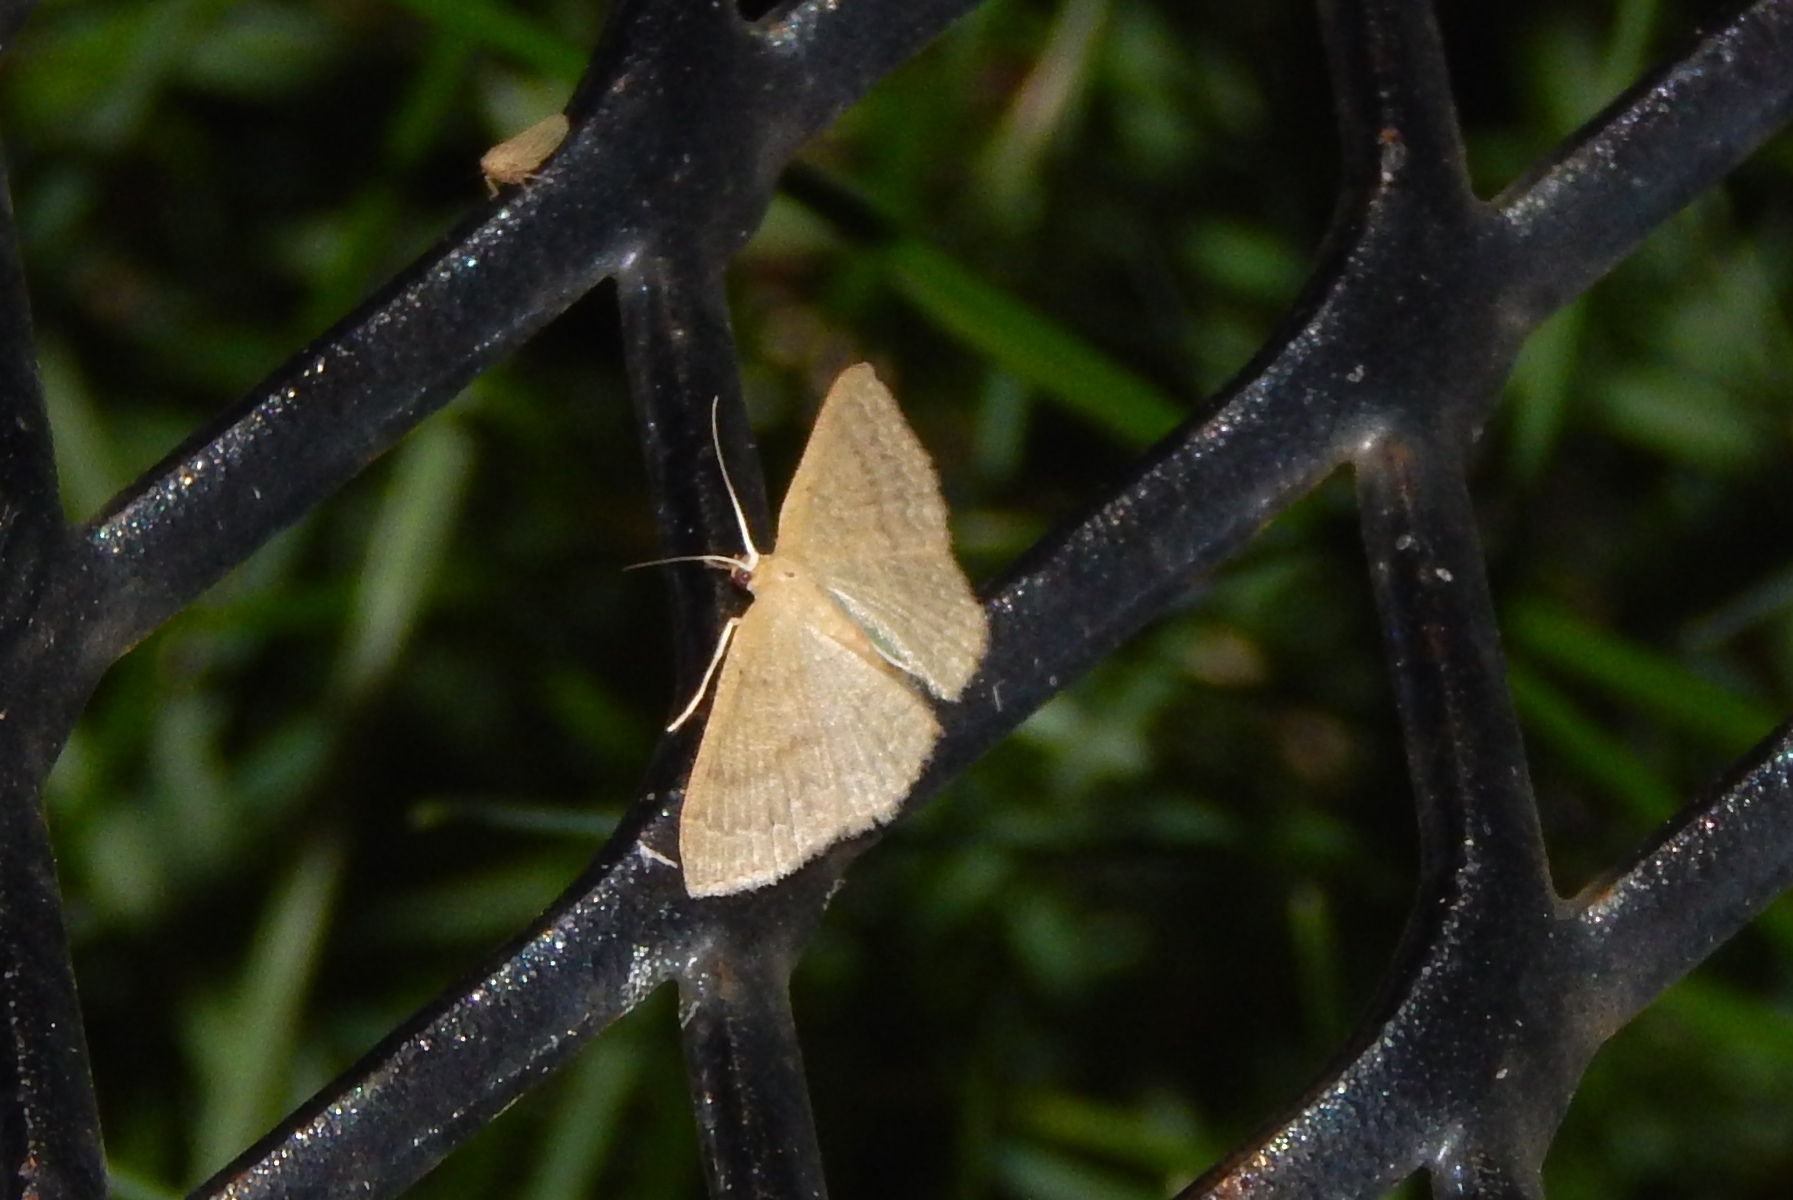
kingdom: Animalia
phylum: Arthropoda
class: Insecta
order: Lepidoptera
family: Geometridae
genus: Pleuroprucha
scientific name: Pleuroprucha insulsaria
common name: Common tan wave
